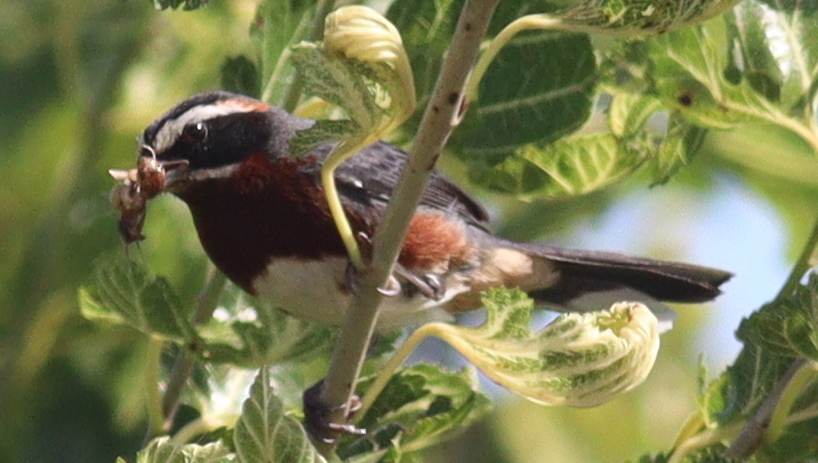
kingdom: Animalia
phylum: Chordata
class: Aves
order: Passeriformes
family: Thraupidae
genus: Poospiza
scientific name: Poospiza whitii
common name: Black-and-chestnut warbling finch
